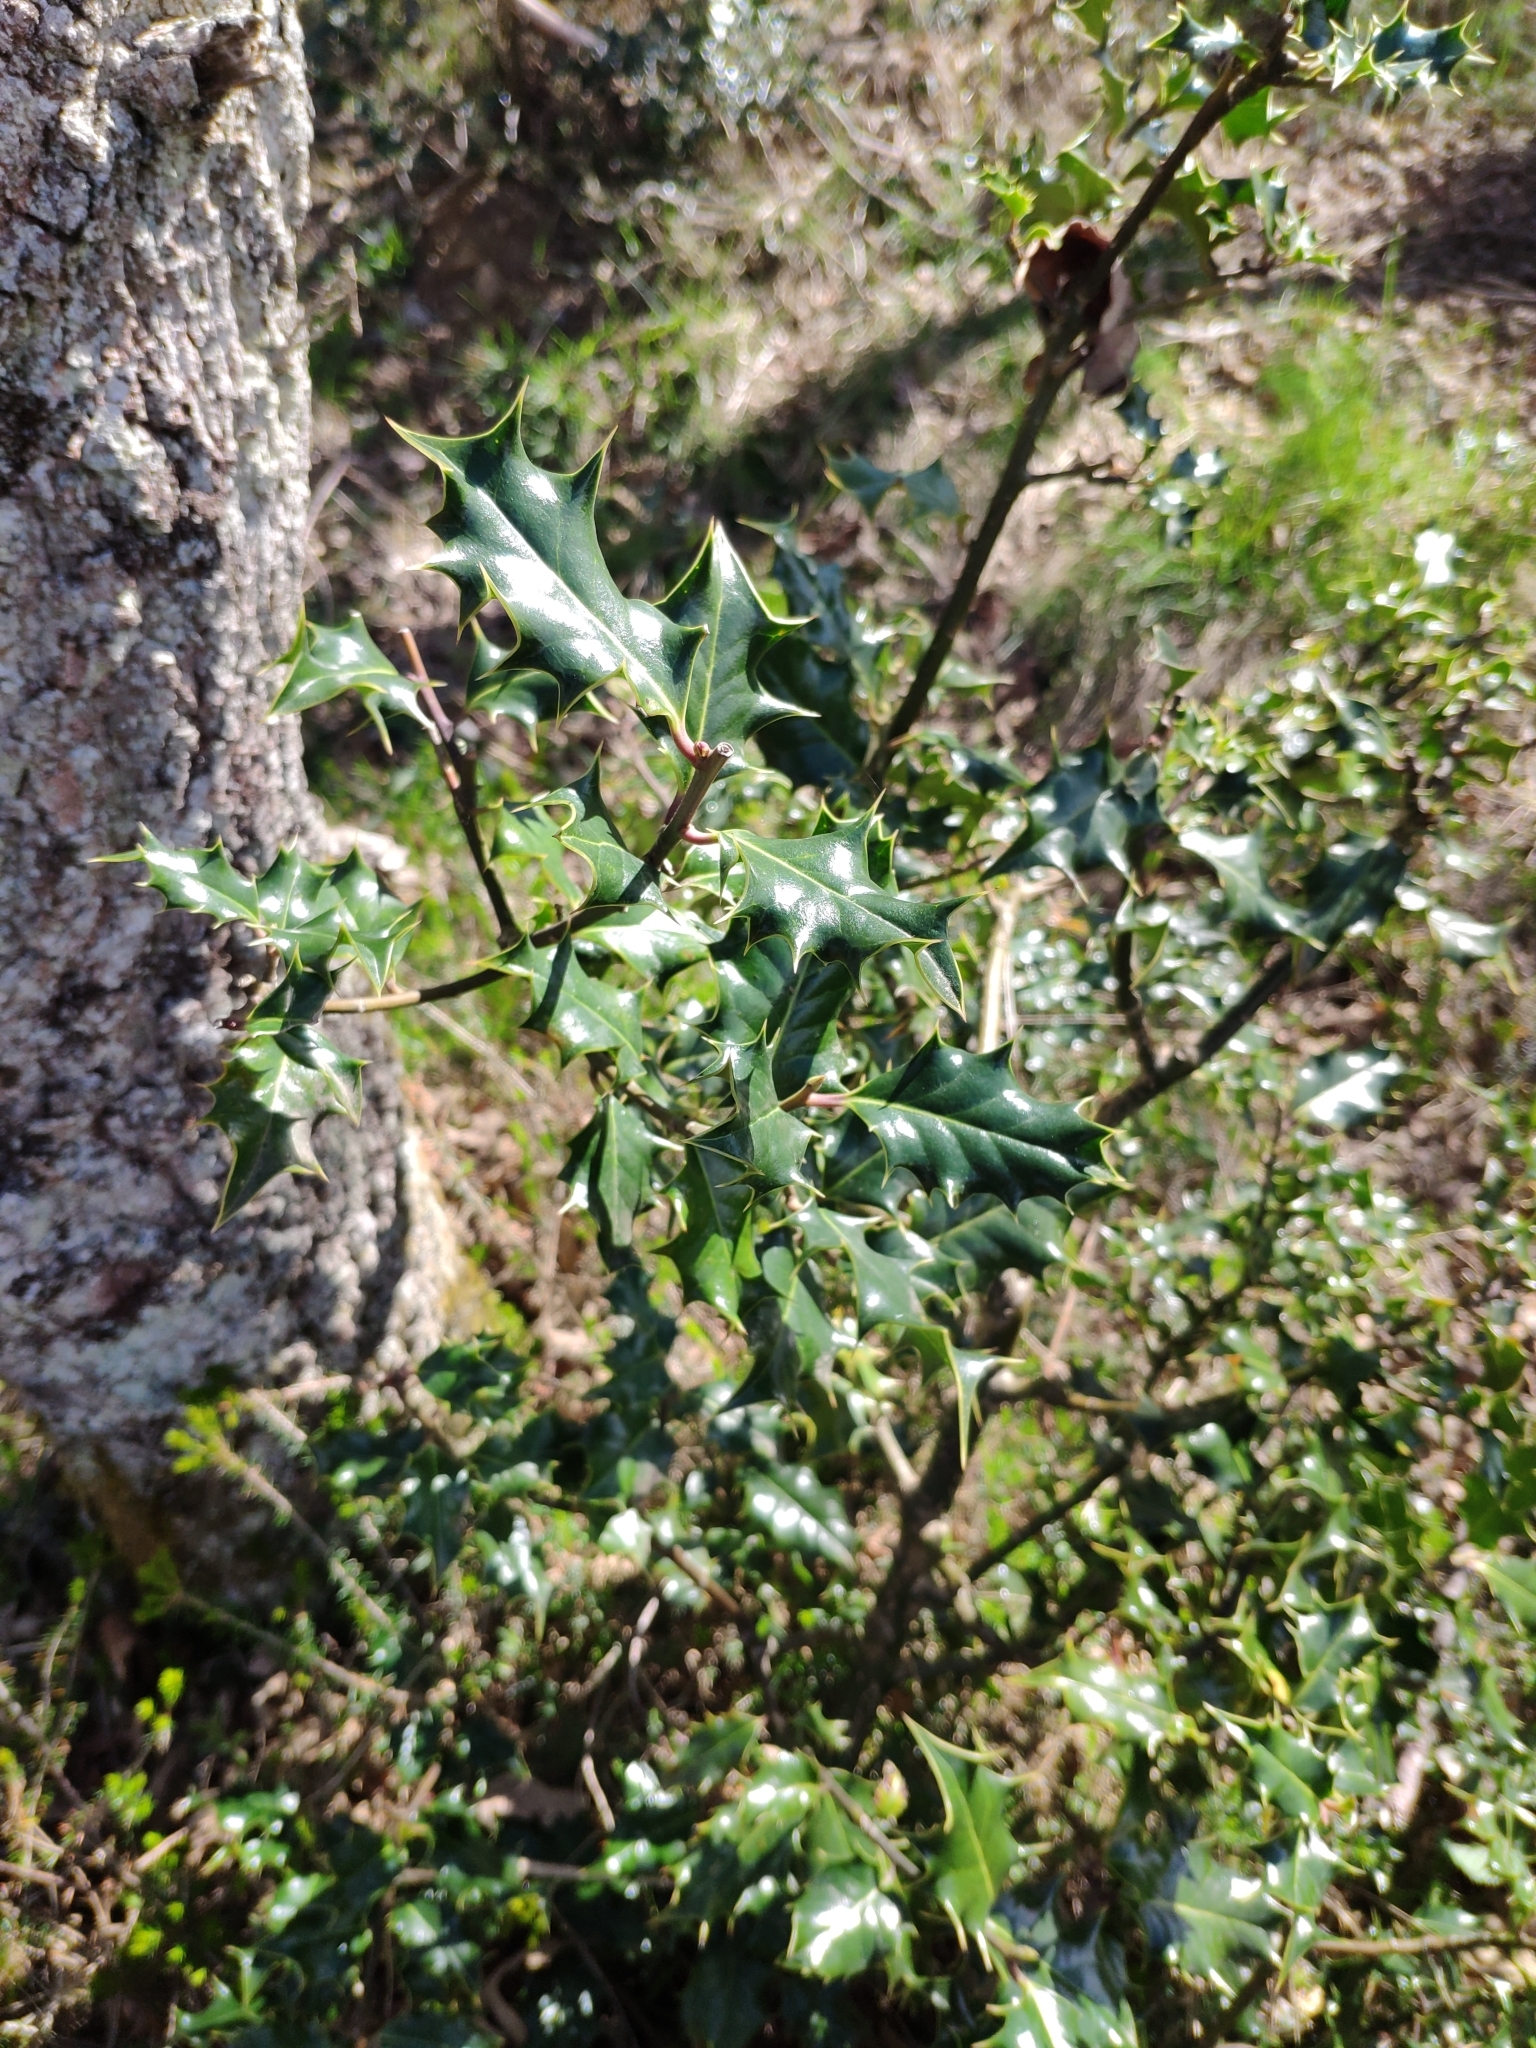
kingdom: Plantae
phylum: Tracheophyta
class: Magnoliopsida
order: Aquifoliales
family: Aquifoliaceae
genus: Ilex
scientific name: Ilex aquifolium
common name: English holly
